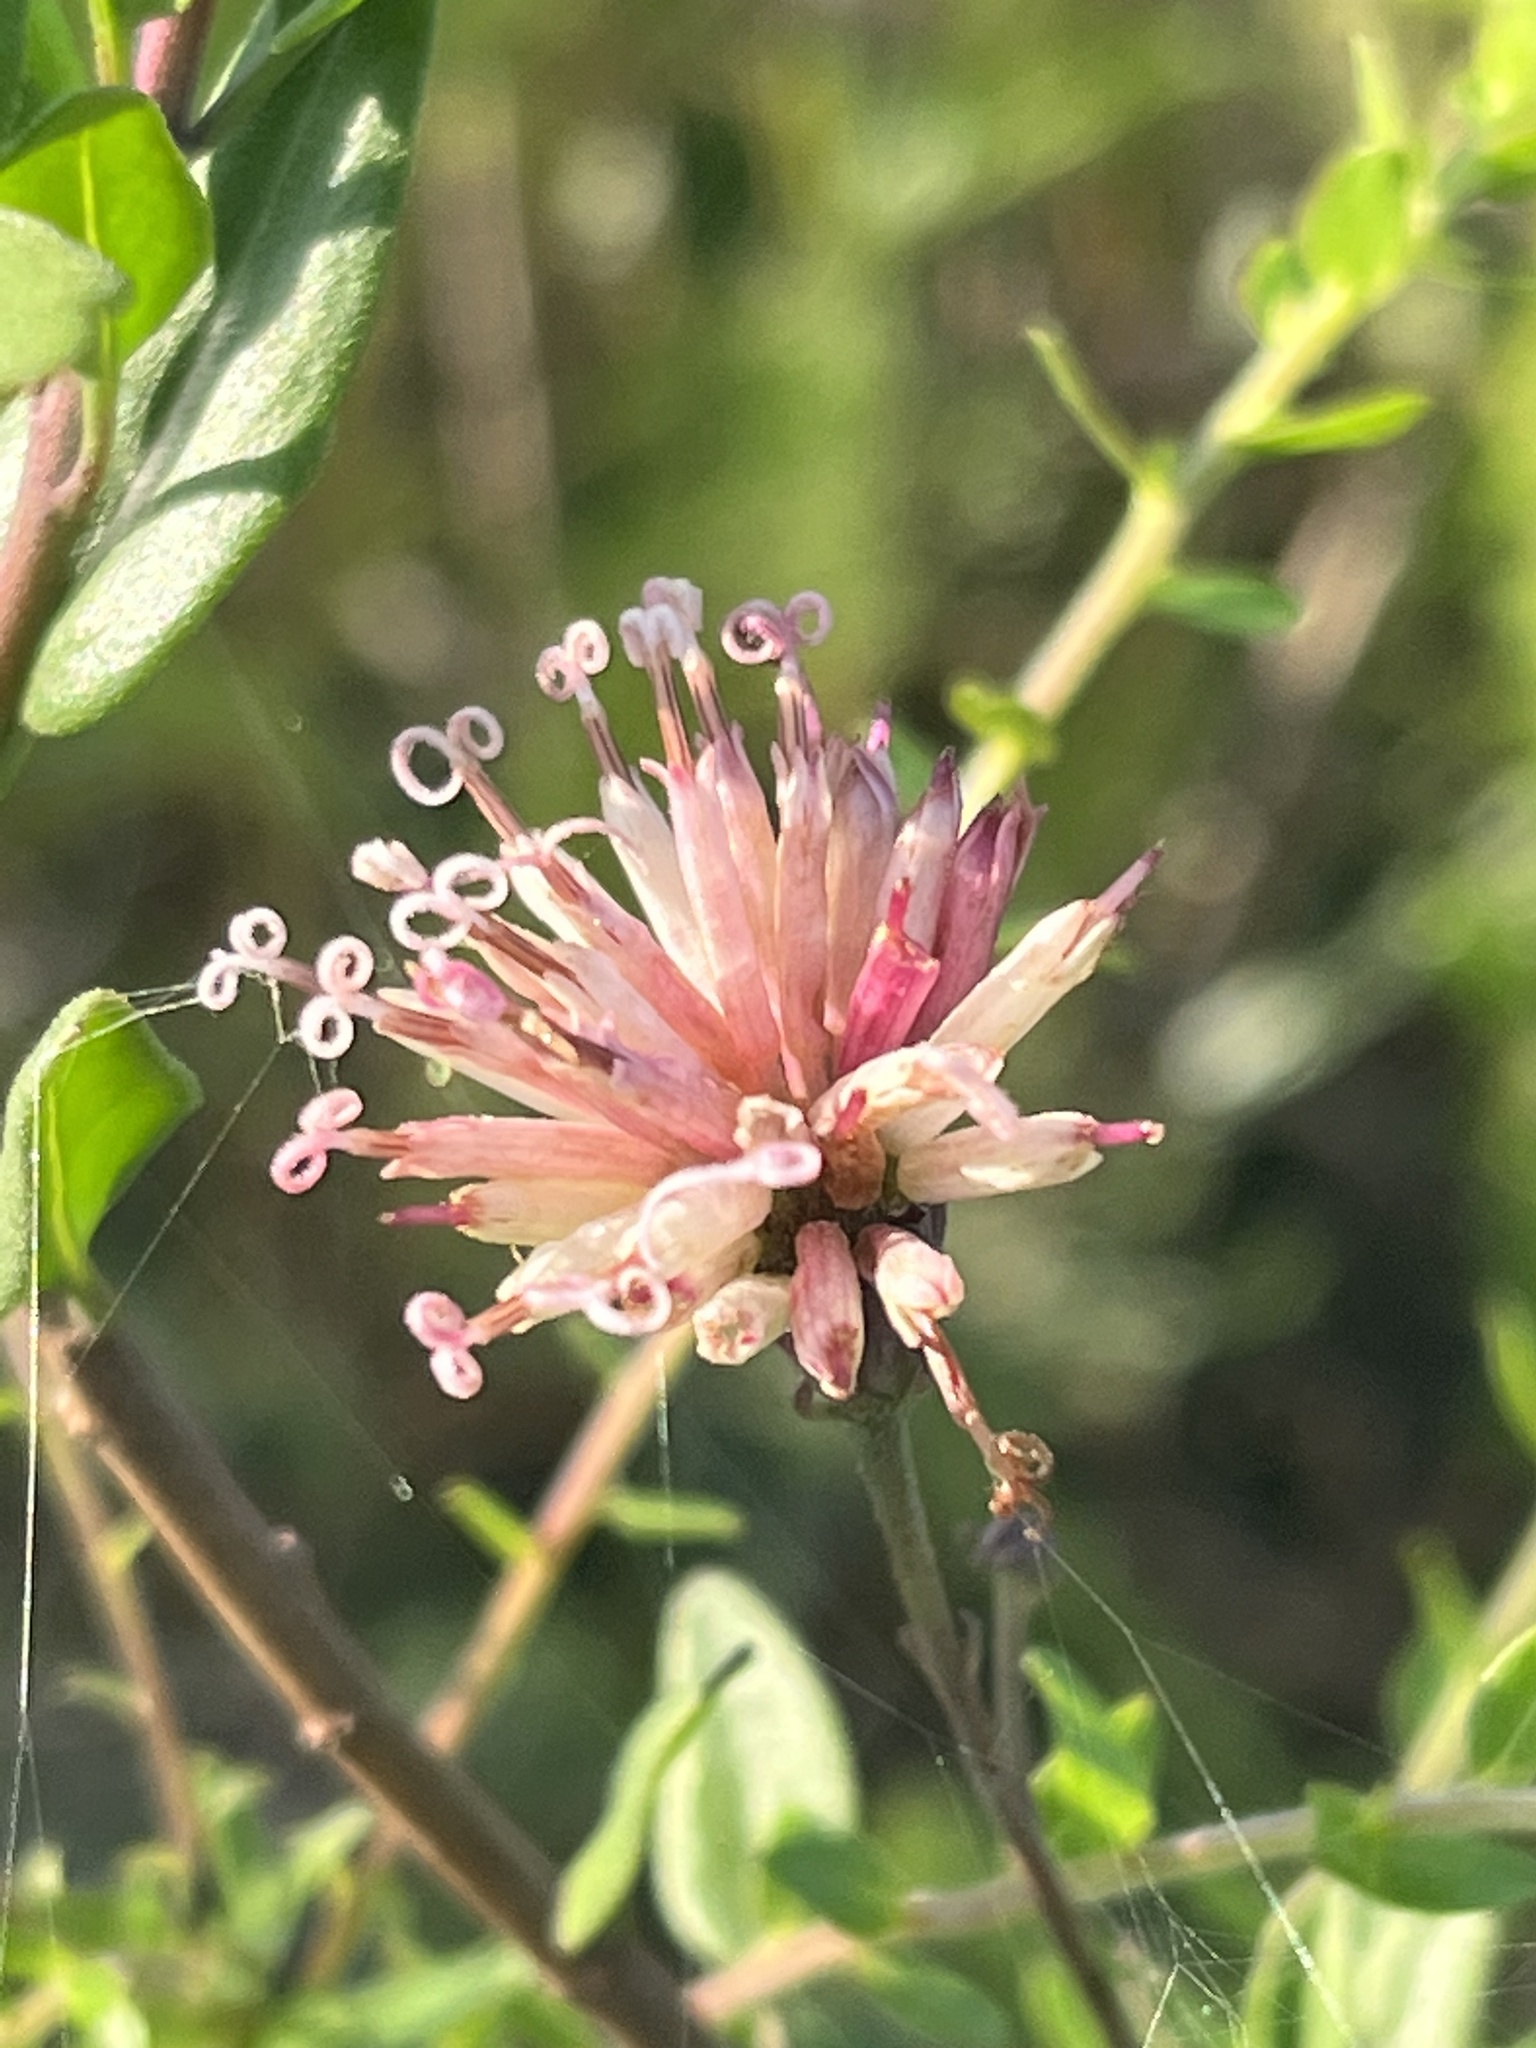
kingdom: Plantae
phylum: Tracheophyta
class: Magnoliopsida
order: Asterales
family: Asteraceae
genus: Palafoxia
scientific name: Palafoxia feayi
